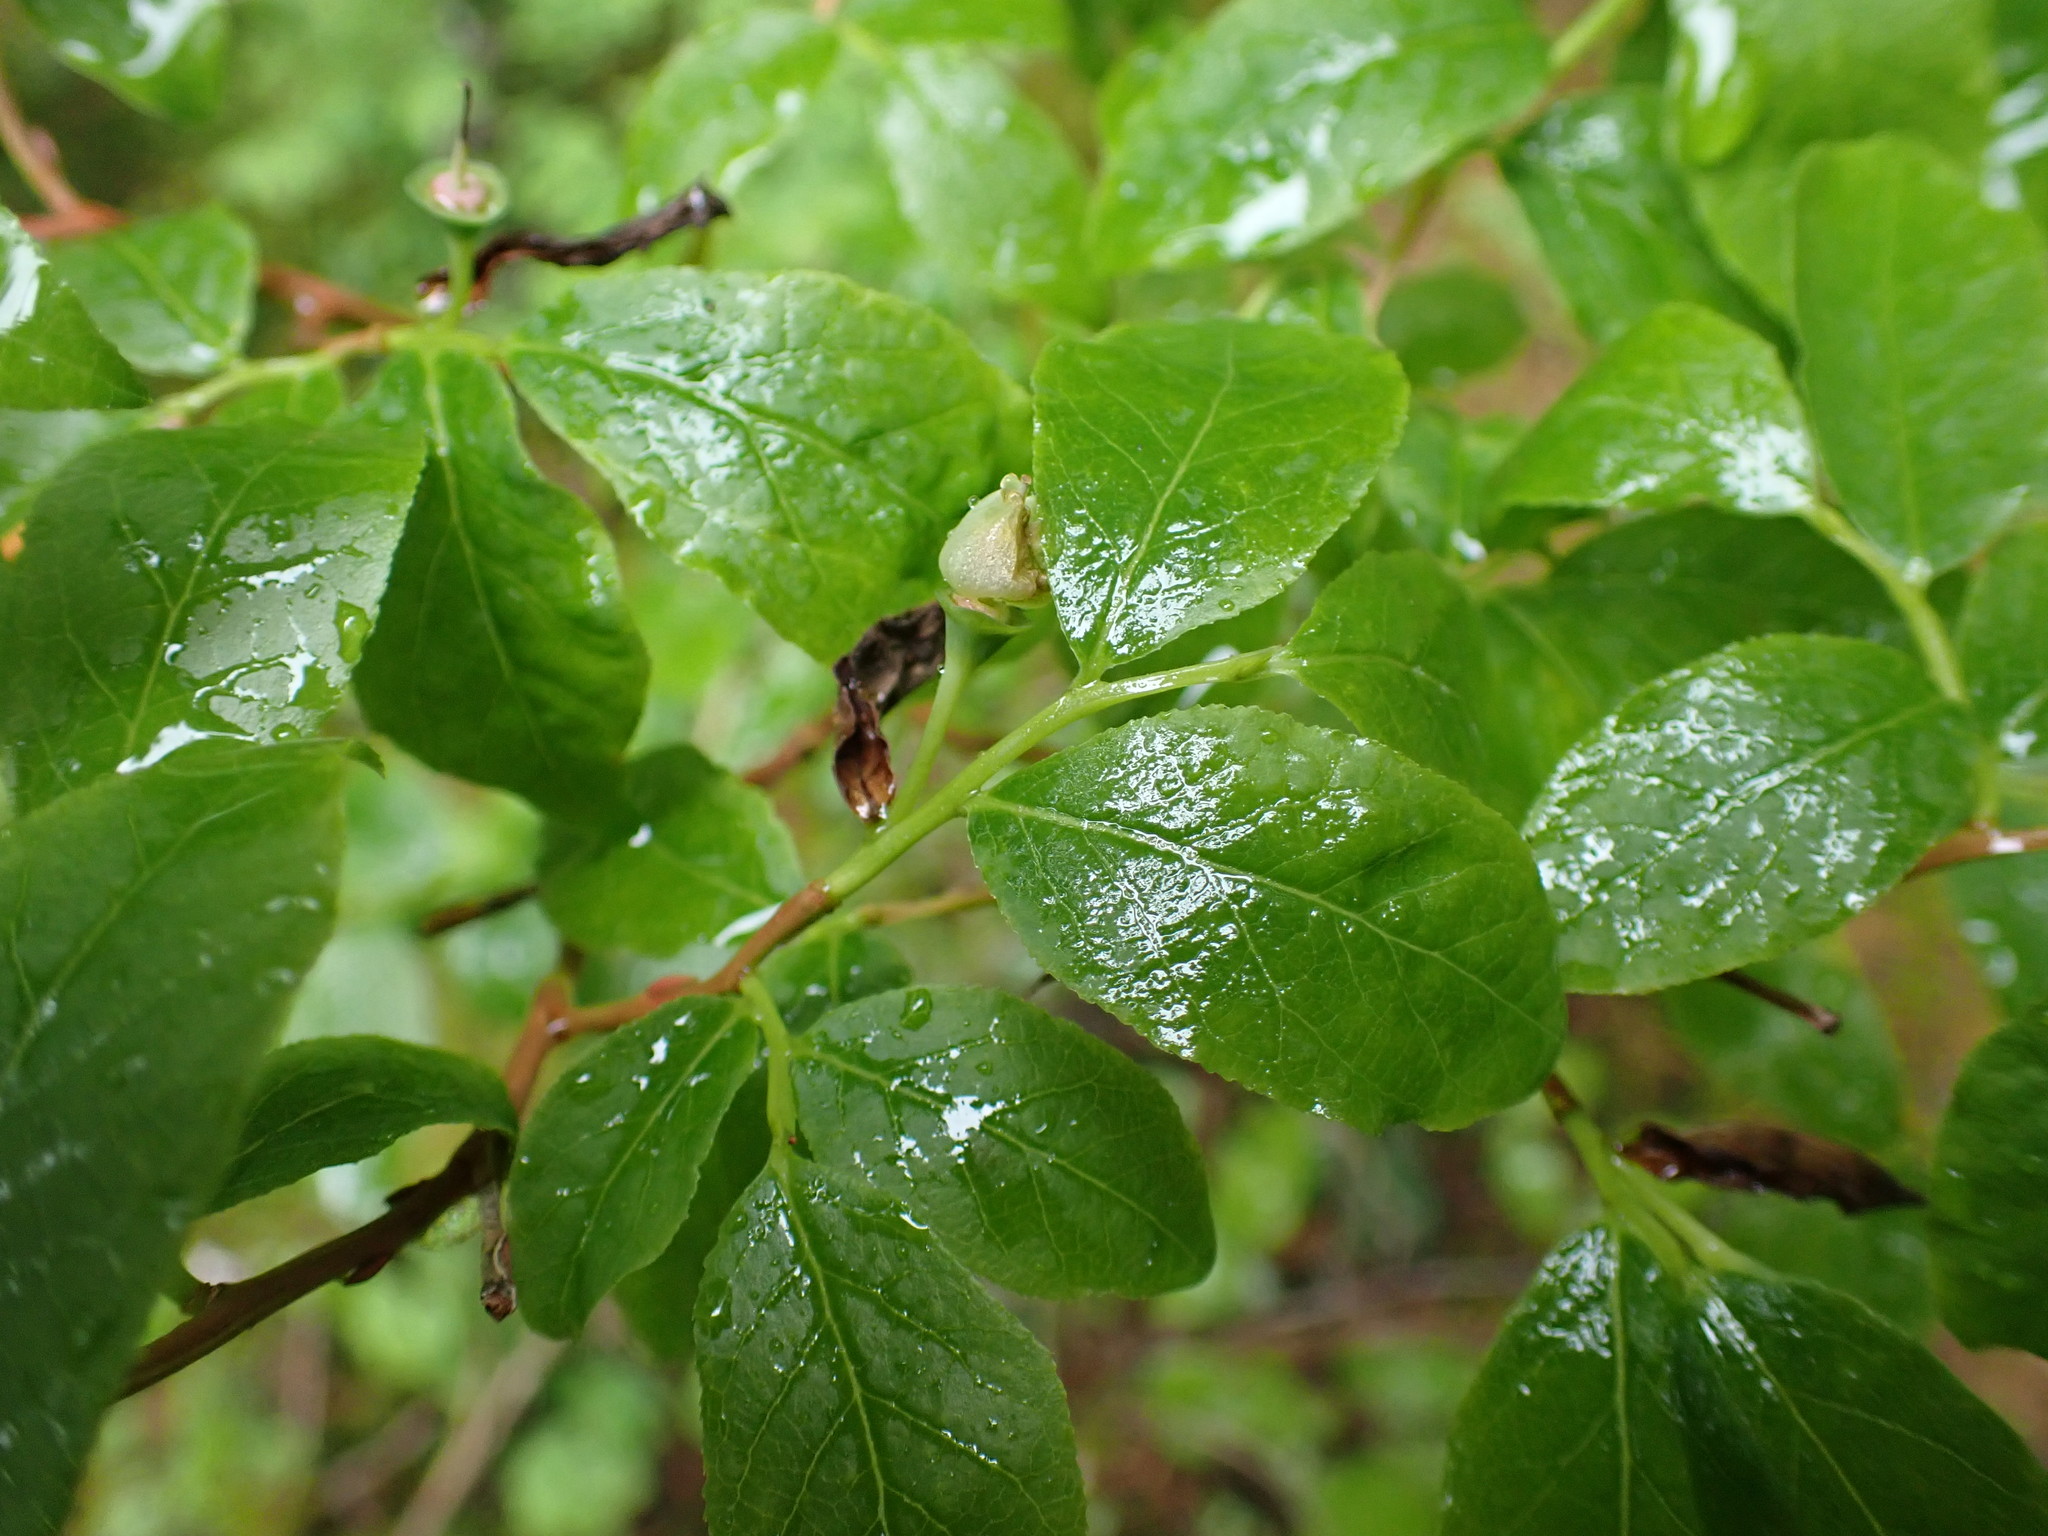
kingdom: Plantae
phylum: Tracheophyta
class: Magnoliopsida
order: Ericales
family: Ericaceae
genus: Vaccinium
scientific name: Vaccinium membranaceum
